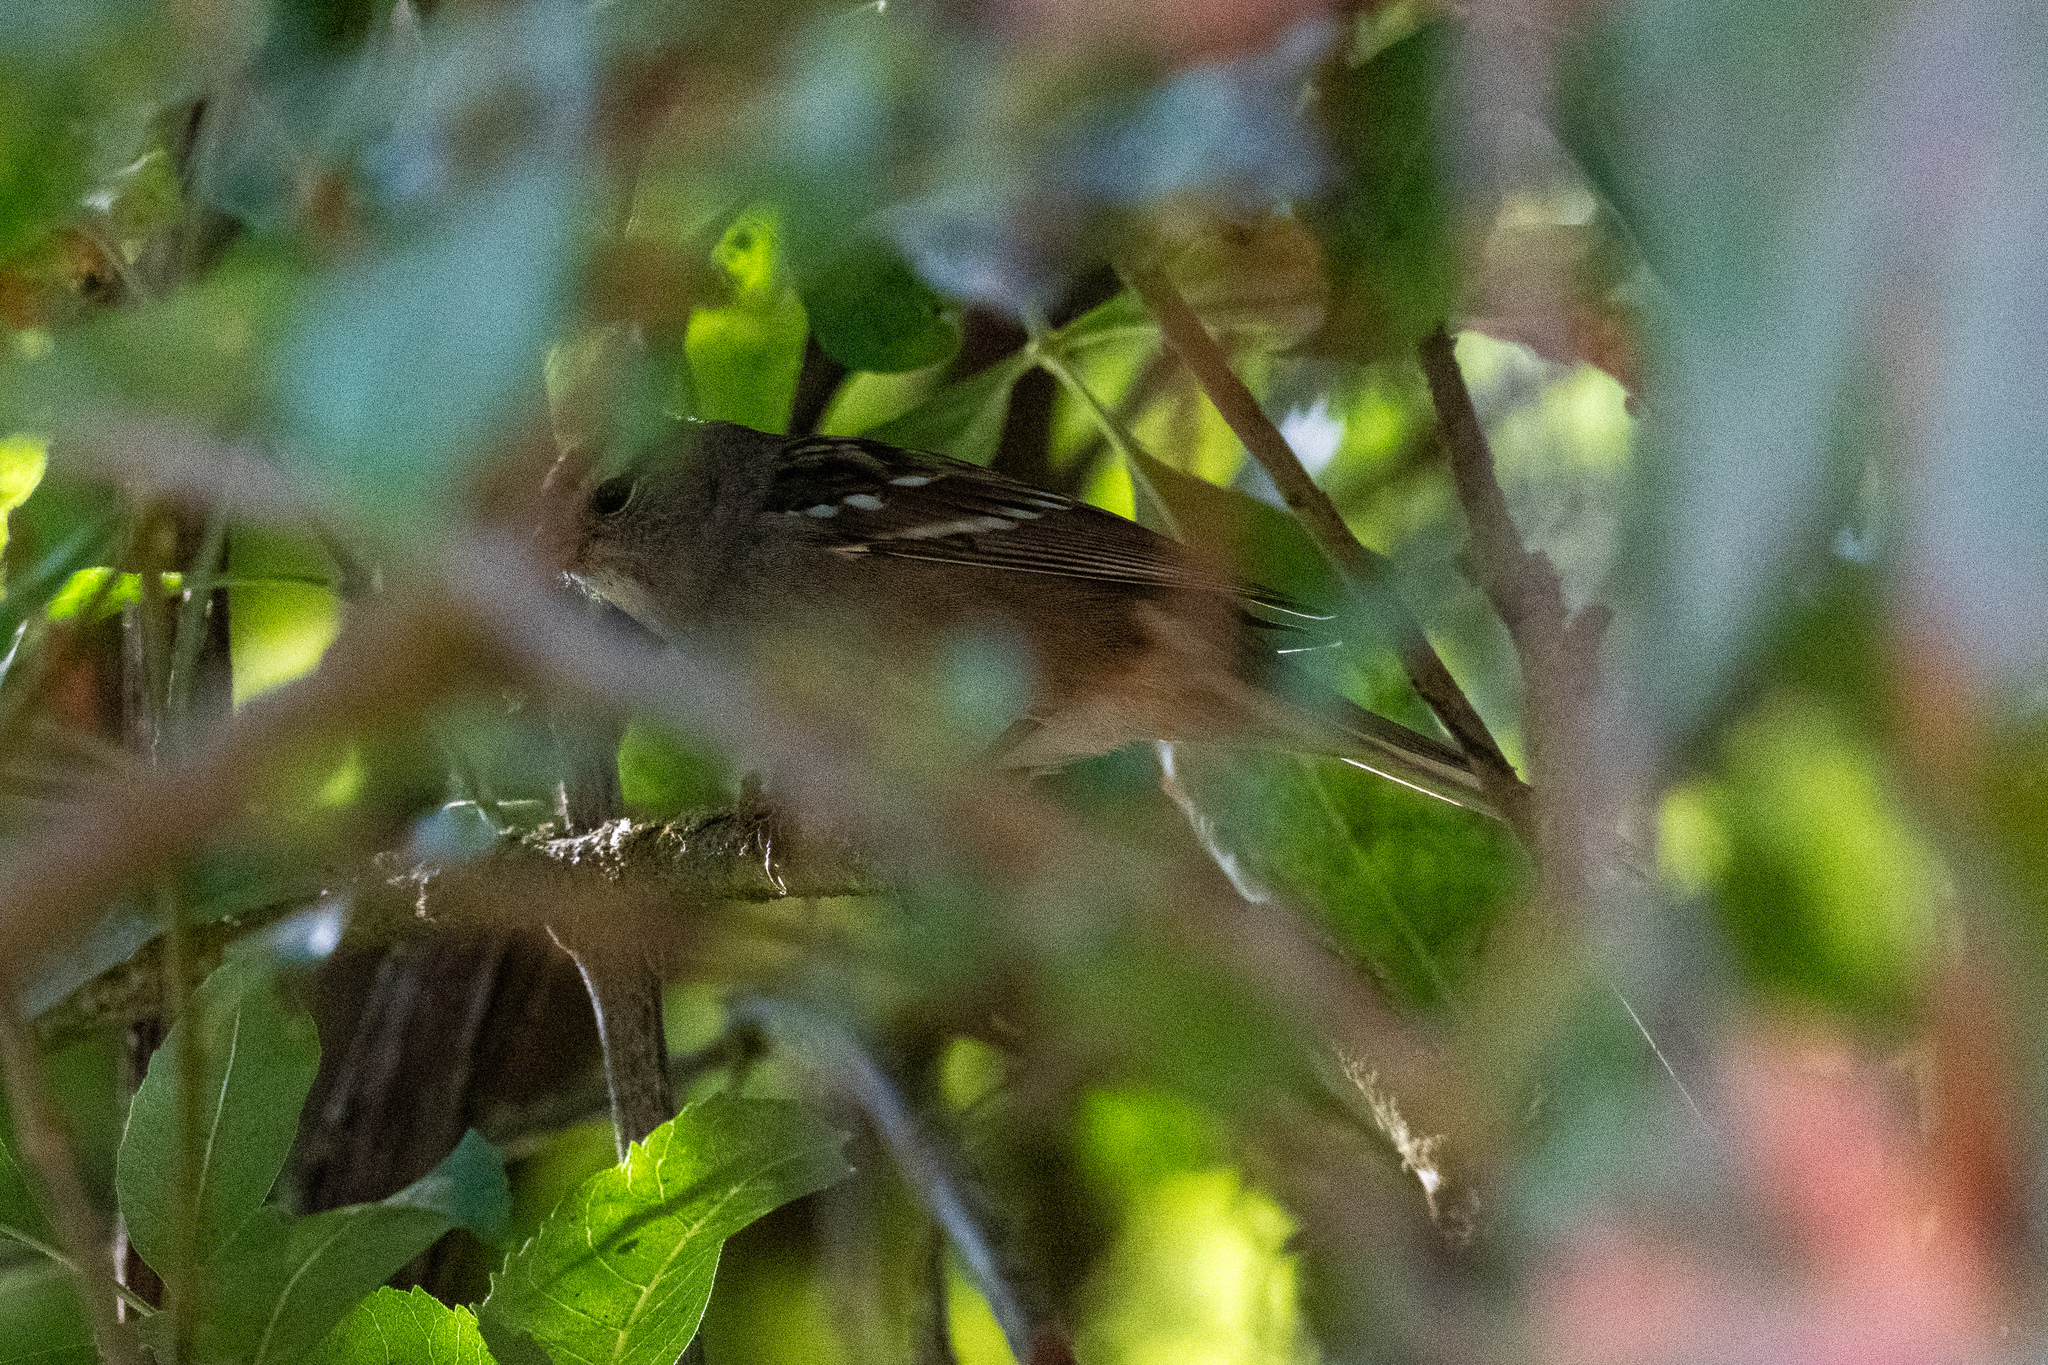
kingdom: Animalia
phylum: Chordata
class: Aves
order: Passeriformes
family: Passerellidae
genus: Zonotrichia
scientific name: Zonotrichia leucophrys
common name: White-crowned sparrow
